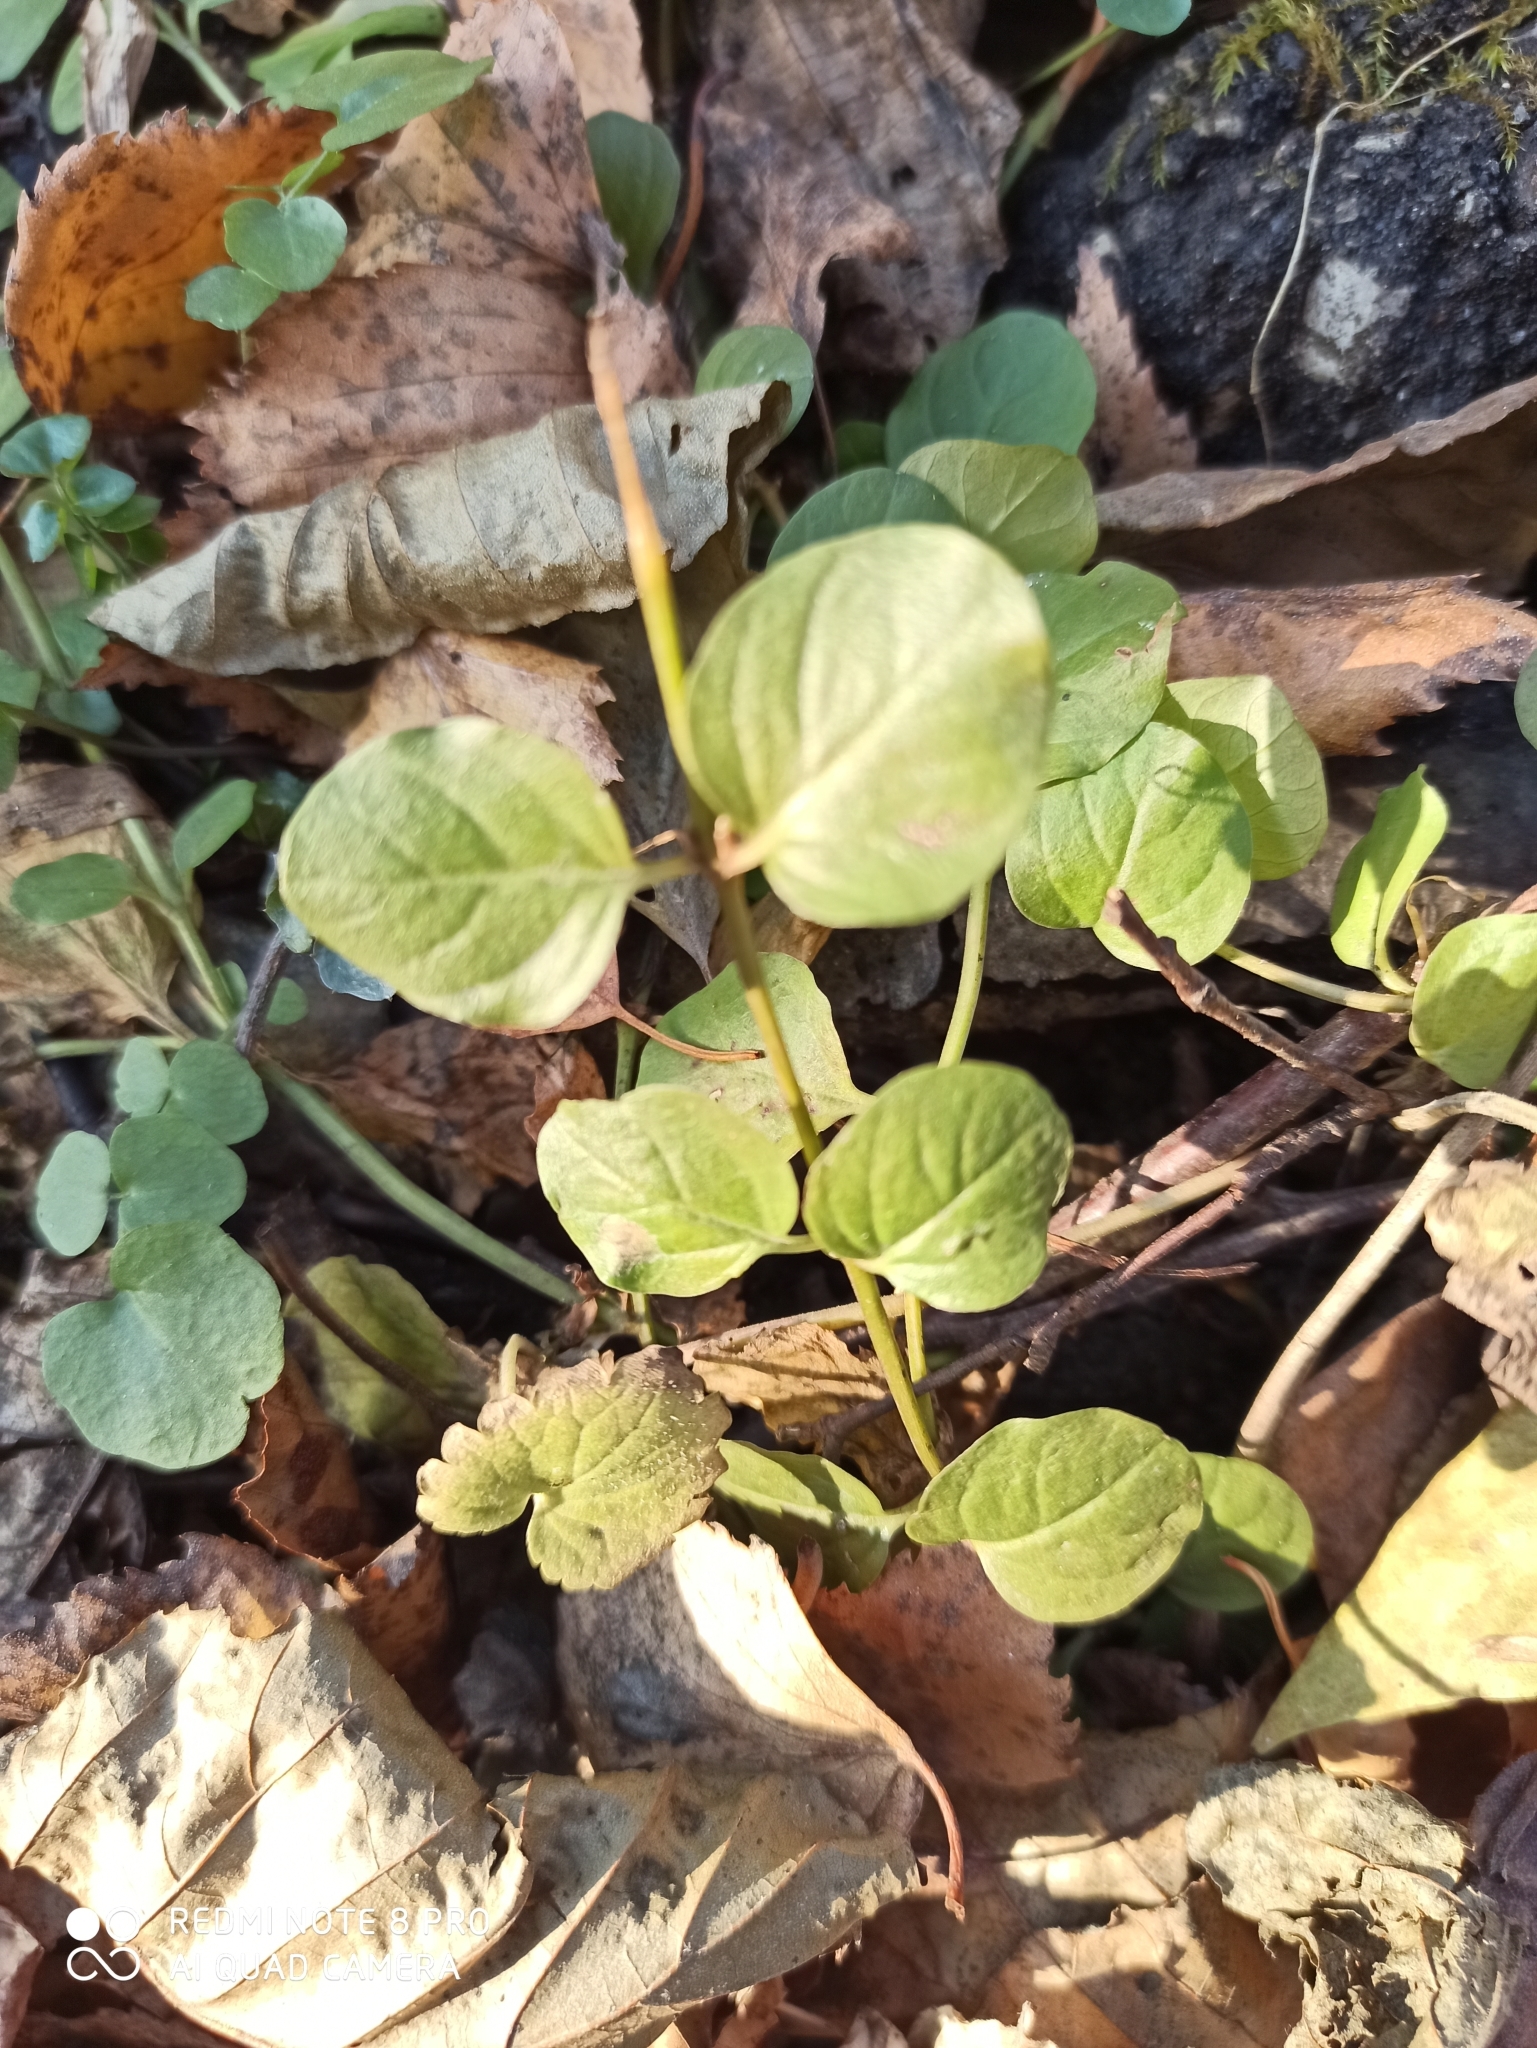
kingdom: Plantae
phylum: Tracheophyta
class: Magnoliopsida
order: Ericales
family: Primulaceae
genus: Lysimachia
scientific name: Lysimachia nummularia
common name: Moneywort
